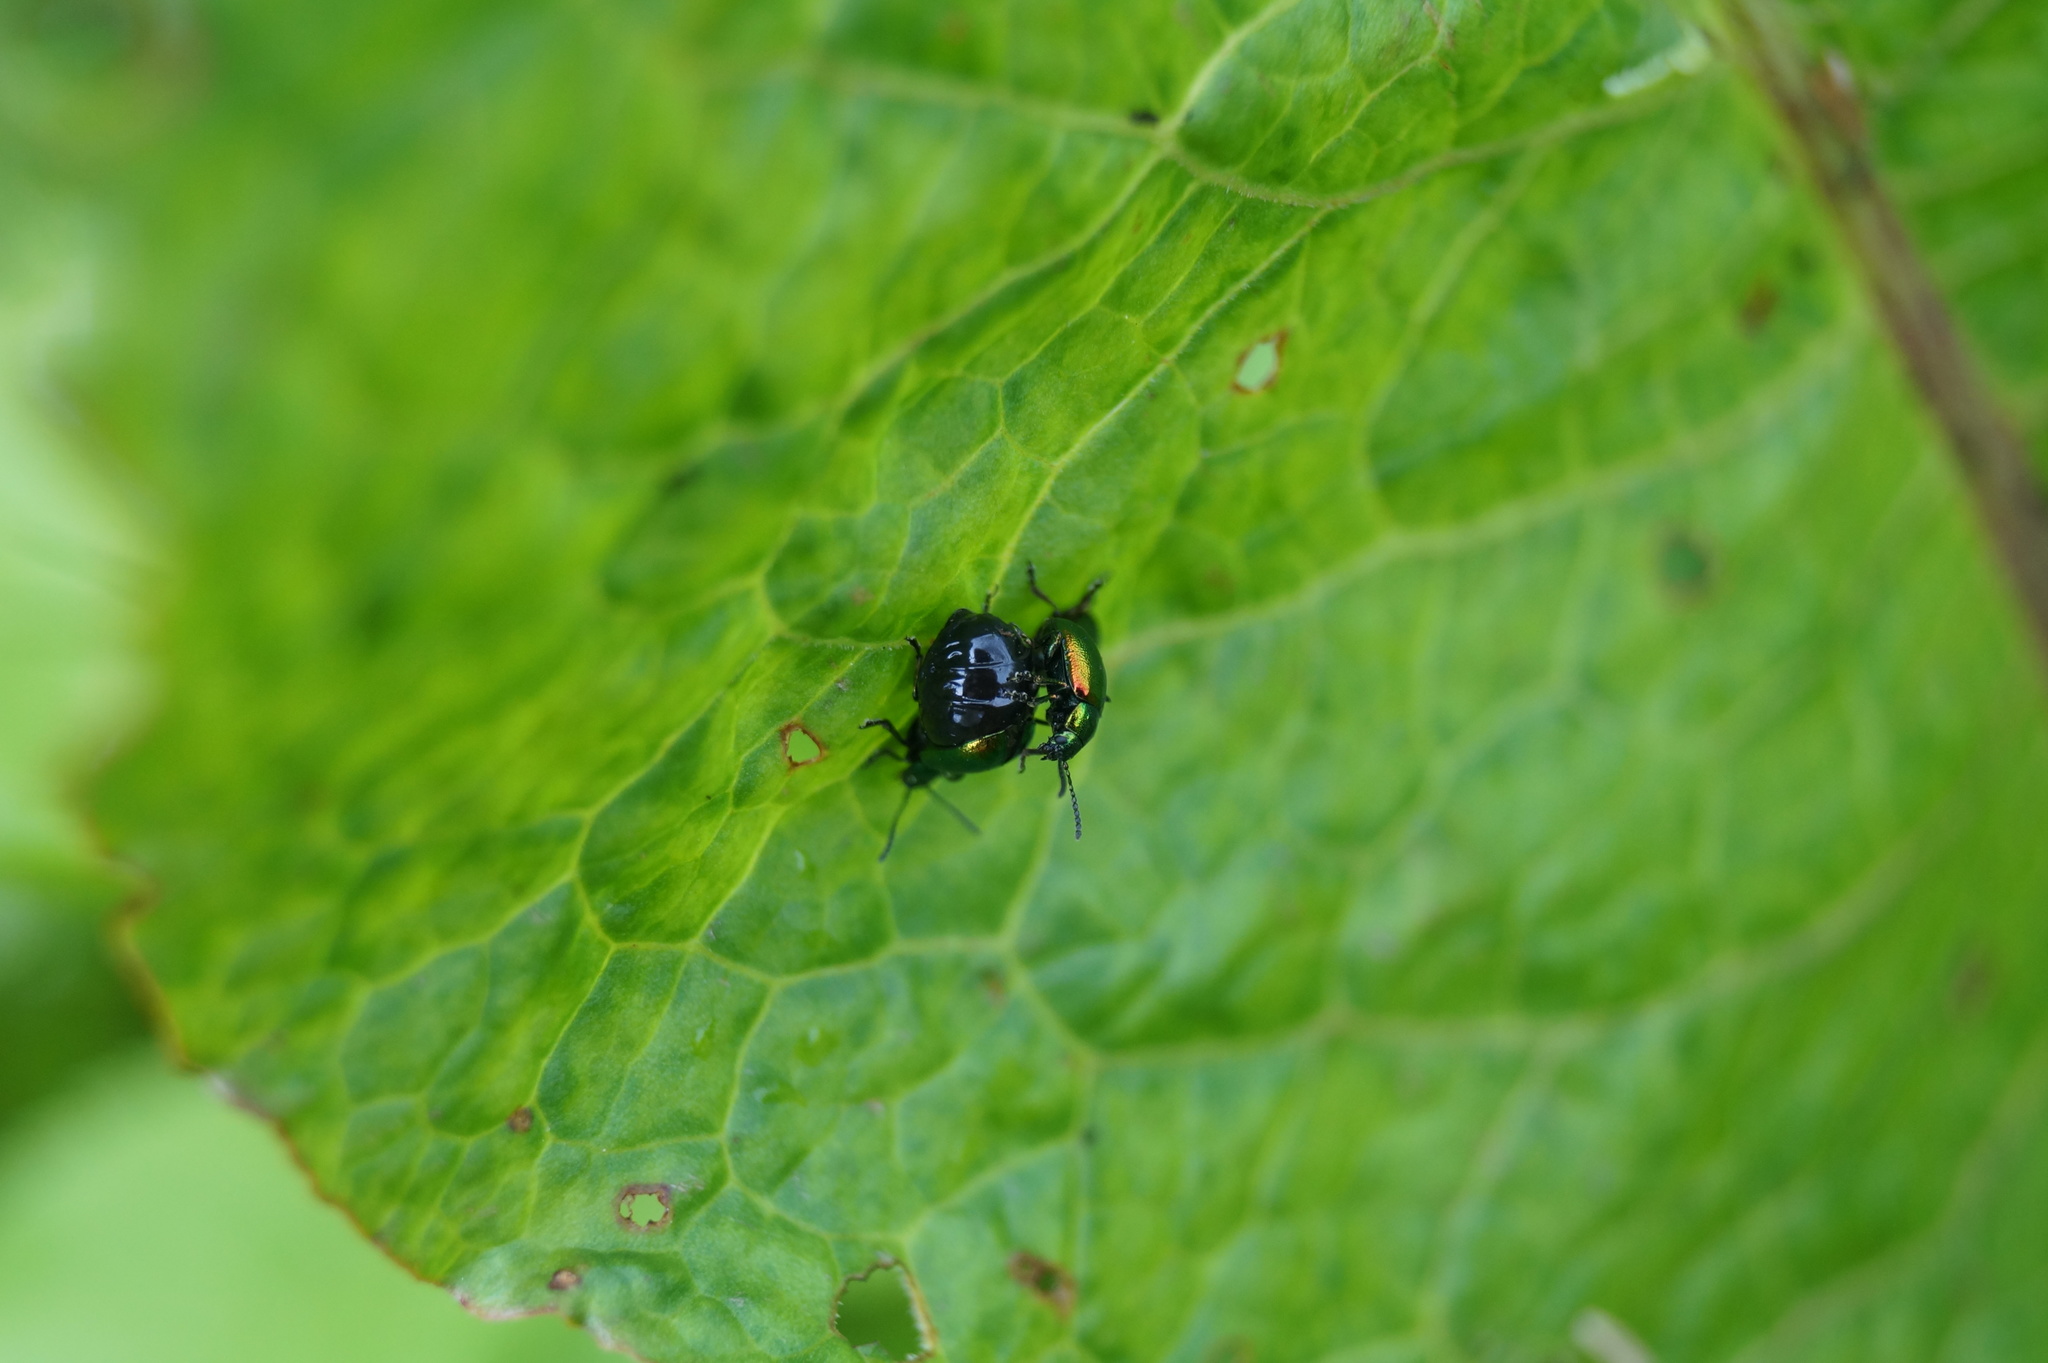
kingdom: Animalia
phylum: Arthropoda
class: Insecta
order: Coleoptera
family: Chrysomelidae
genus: Gastrophysa
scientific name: Gastrophysa viridula
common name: Green dock beetle
